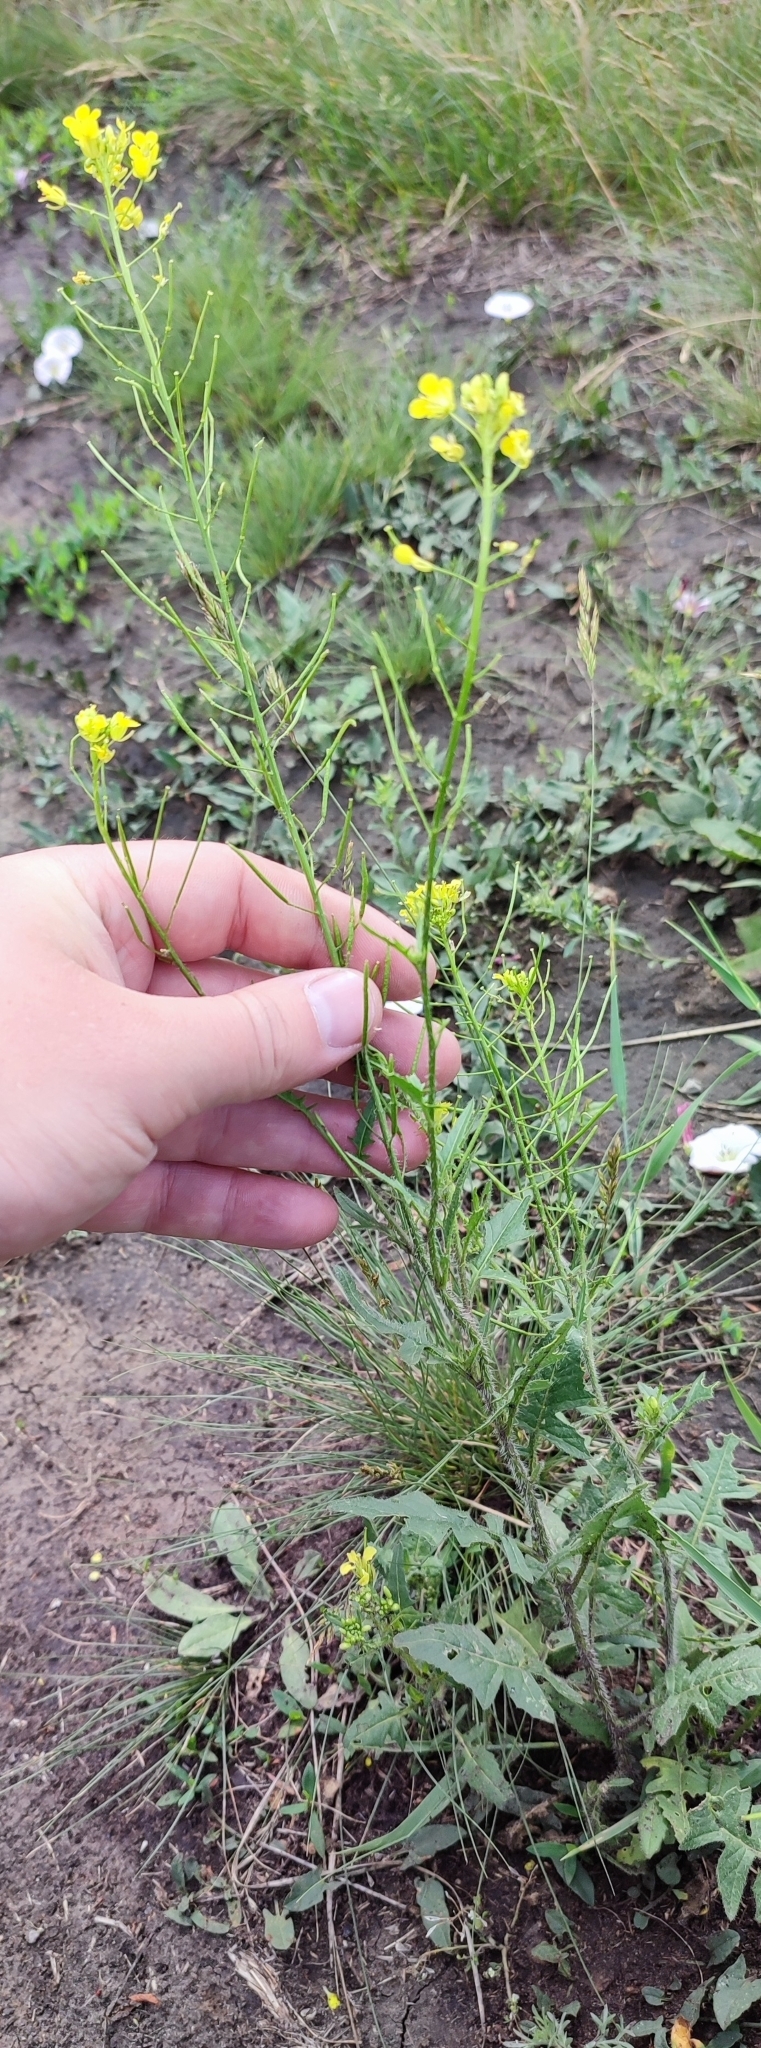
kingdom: Plantae
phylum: Tracheophyta
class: Magnoliopsida
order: Brassicales
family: Brassicaceae
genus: Sisymbrium
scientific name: Sisymbrium loeselii
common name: False london-rocket
